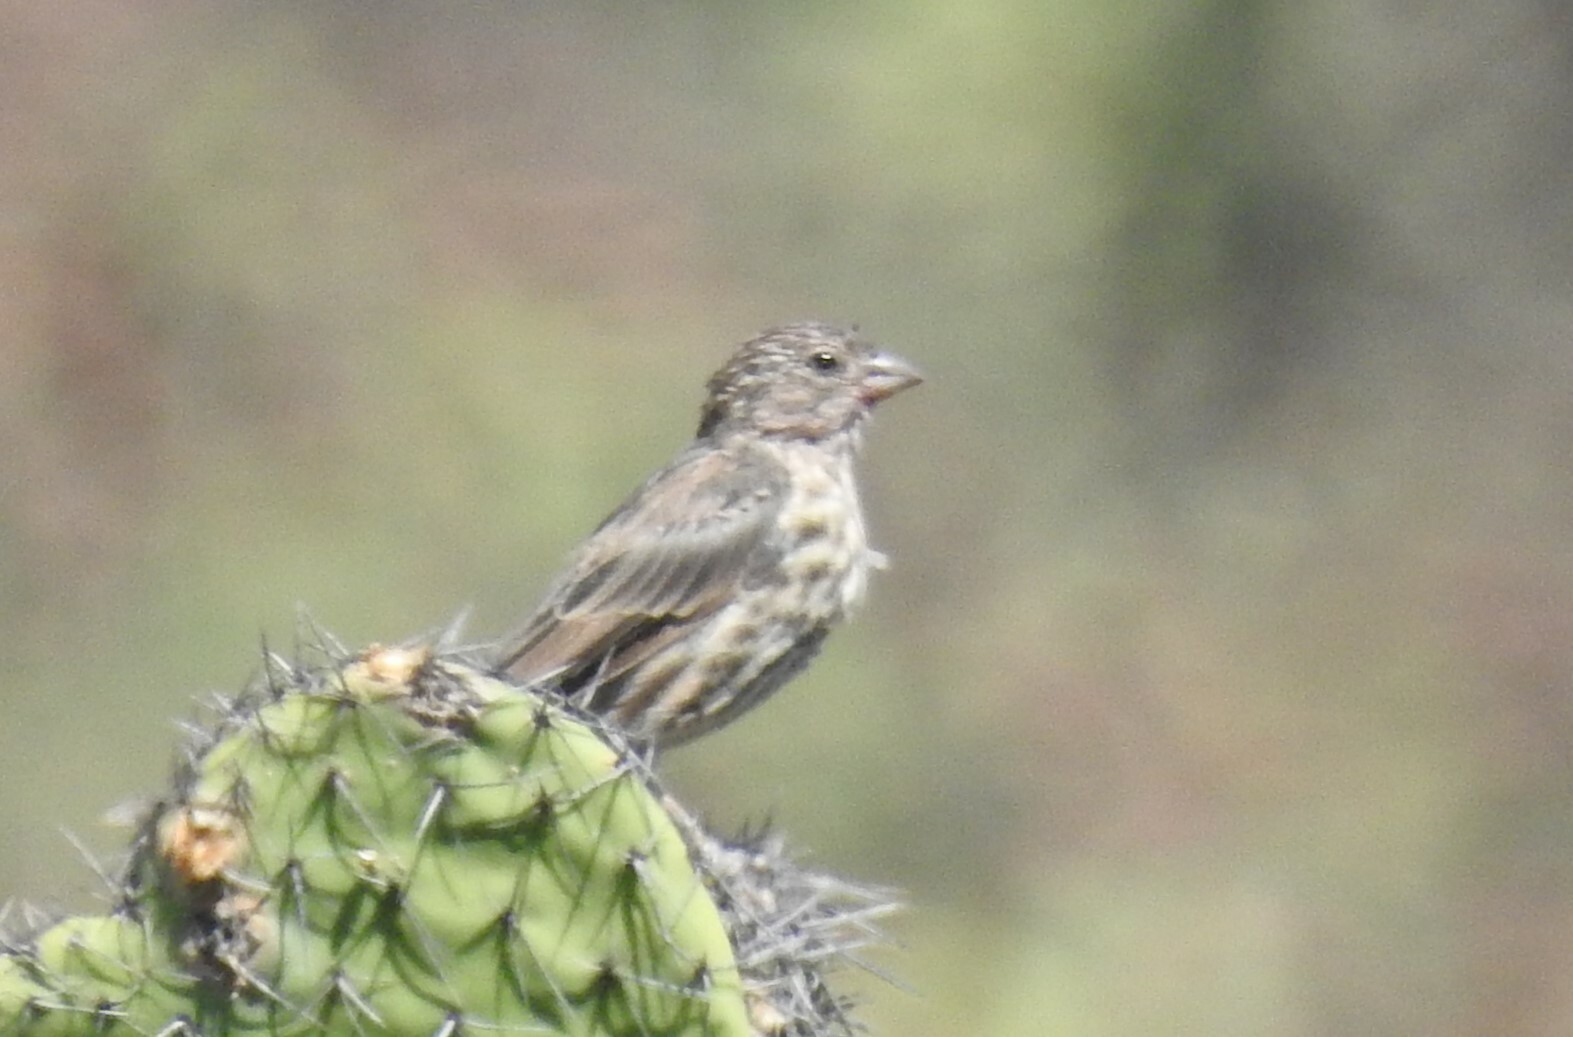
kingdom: Animalia
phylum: Chordata
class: Aves
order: Passeriformes
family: Fringillidae
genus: Haemorhous
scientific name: Haemorhous mexicanus
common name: House finch
